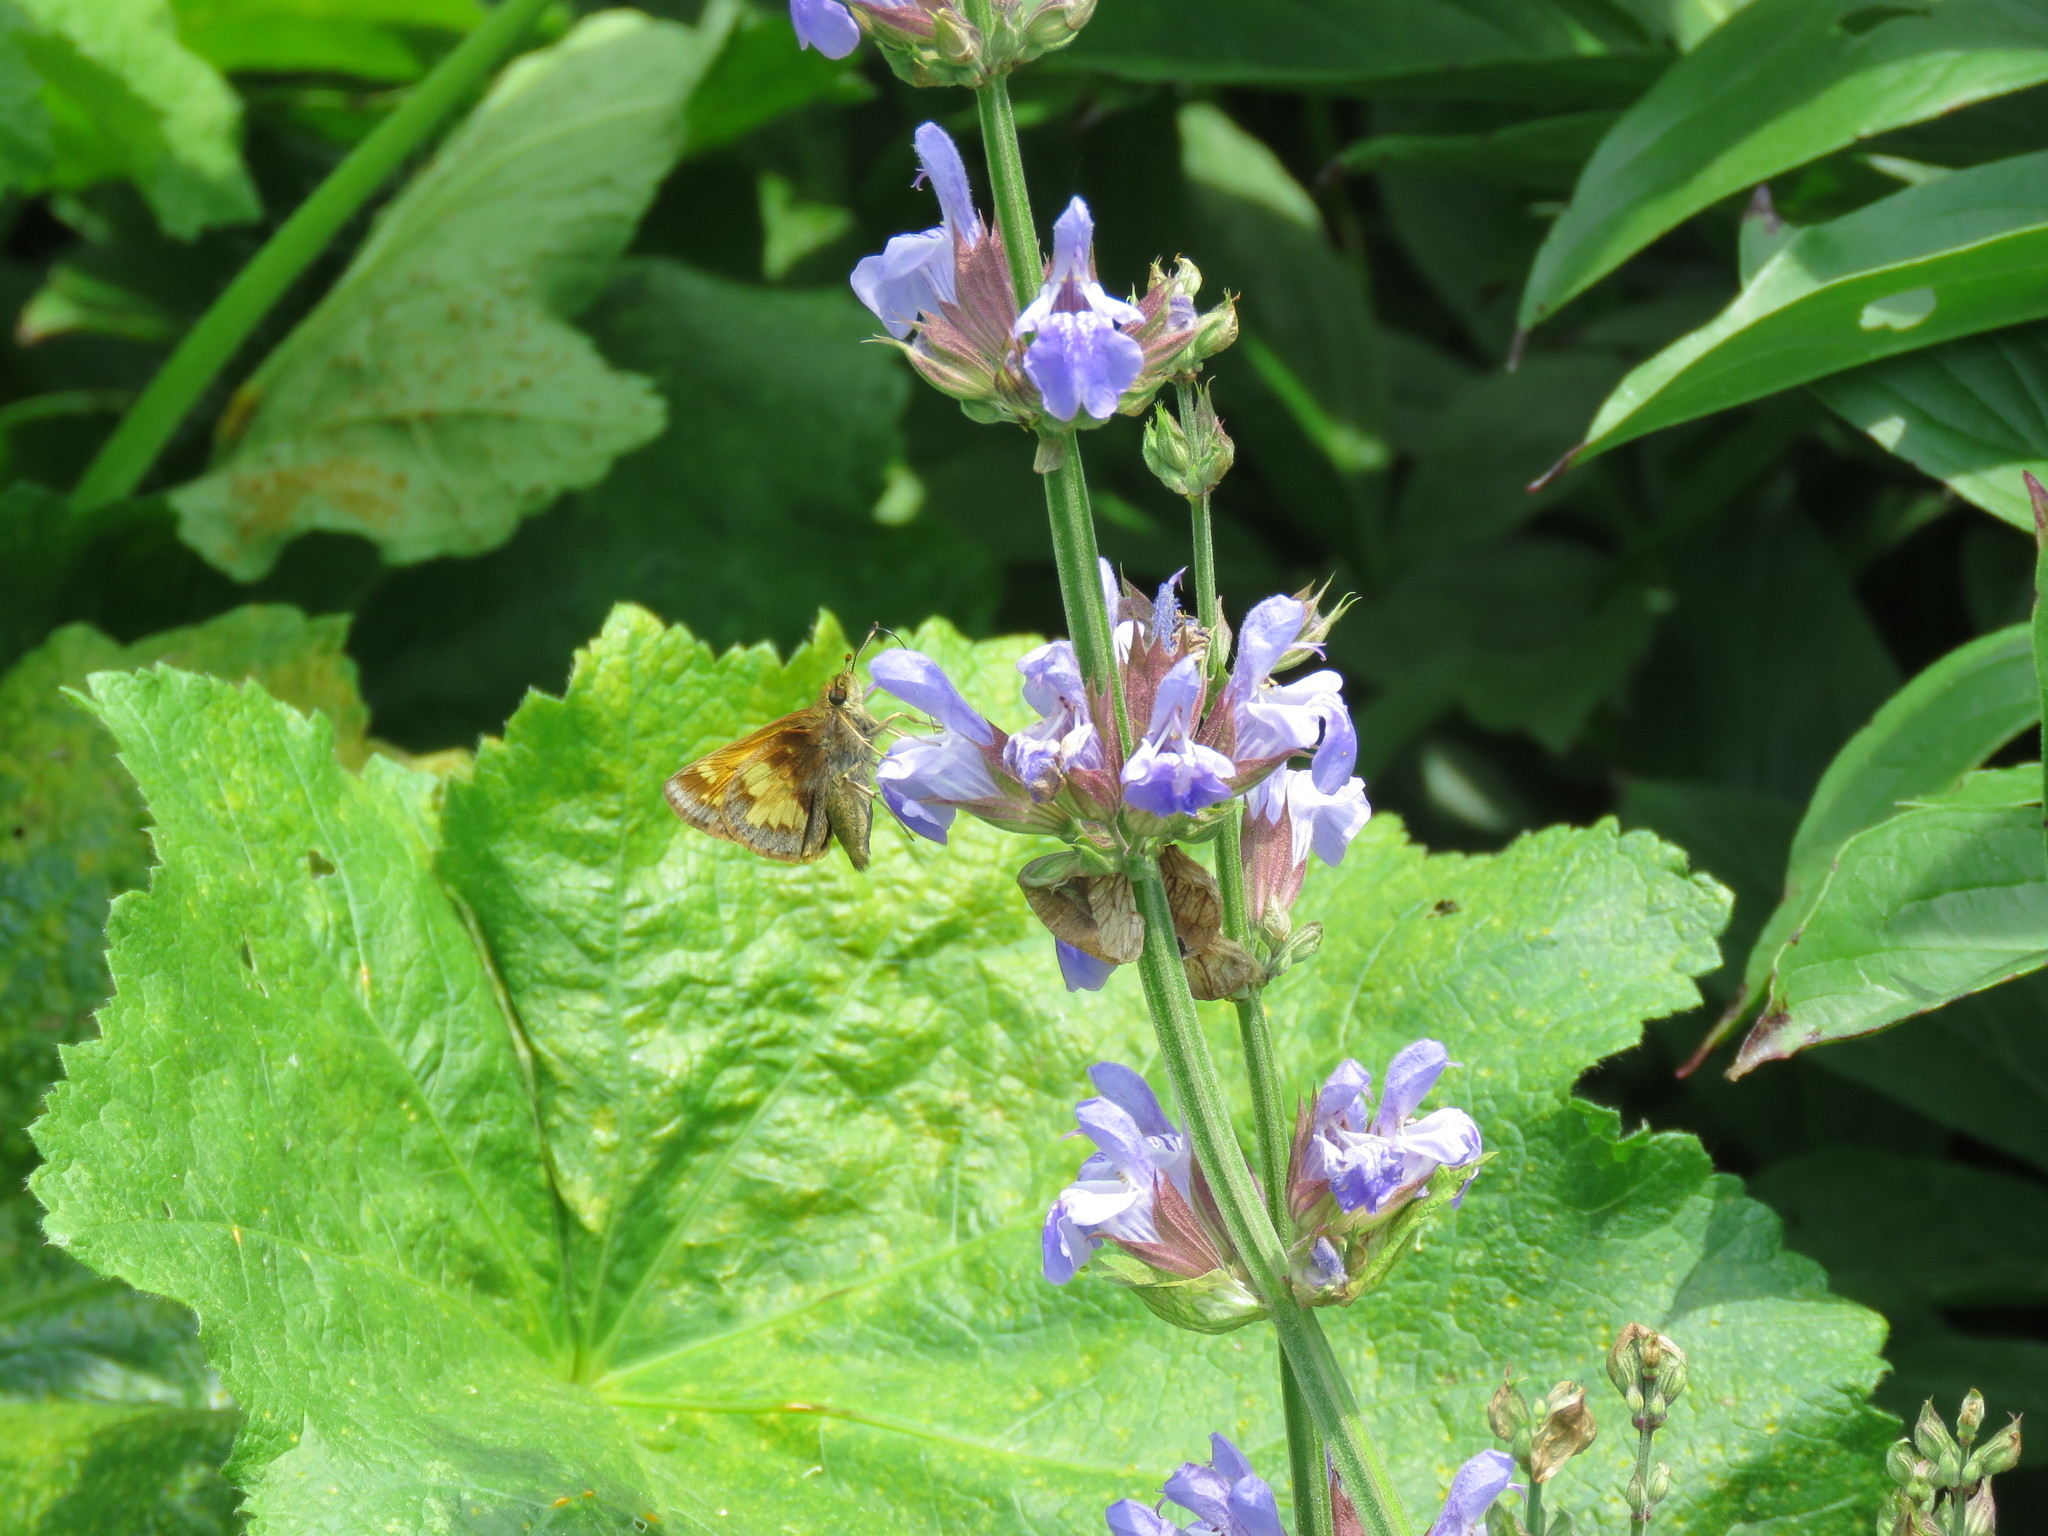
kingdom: Animalia
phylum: Arthropoda
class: Insecta
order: Lepidoptera
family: Hesperiidae
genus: Lon
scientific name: Lon hobomok
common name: Hobomok skipper
